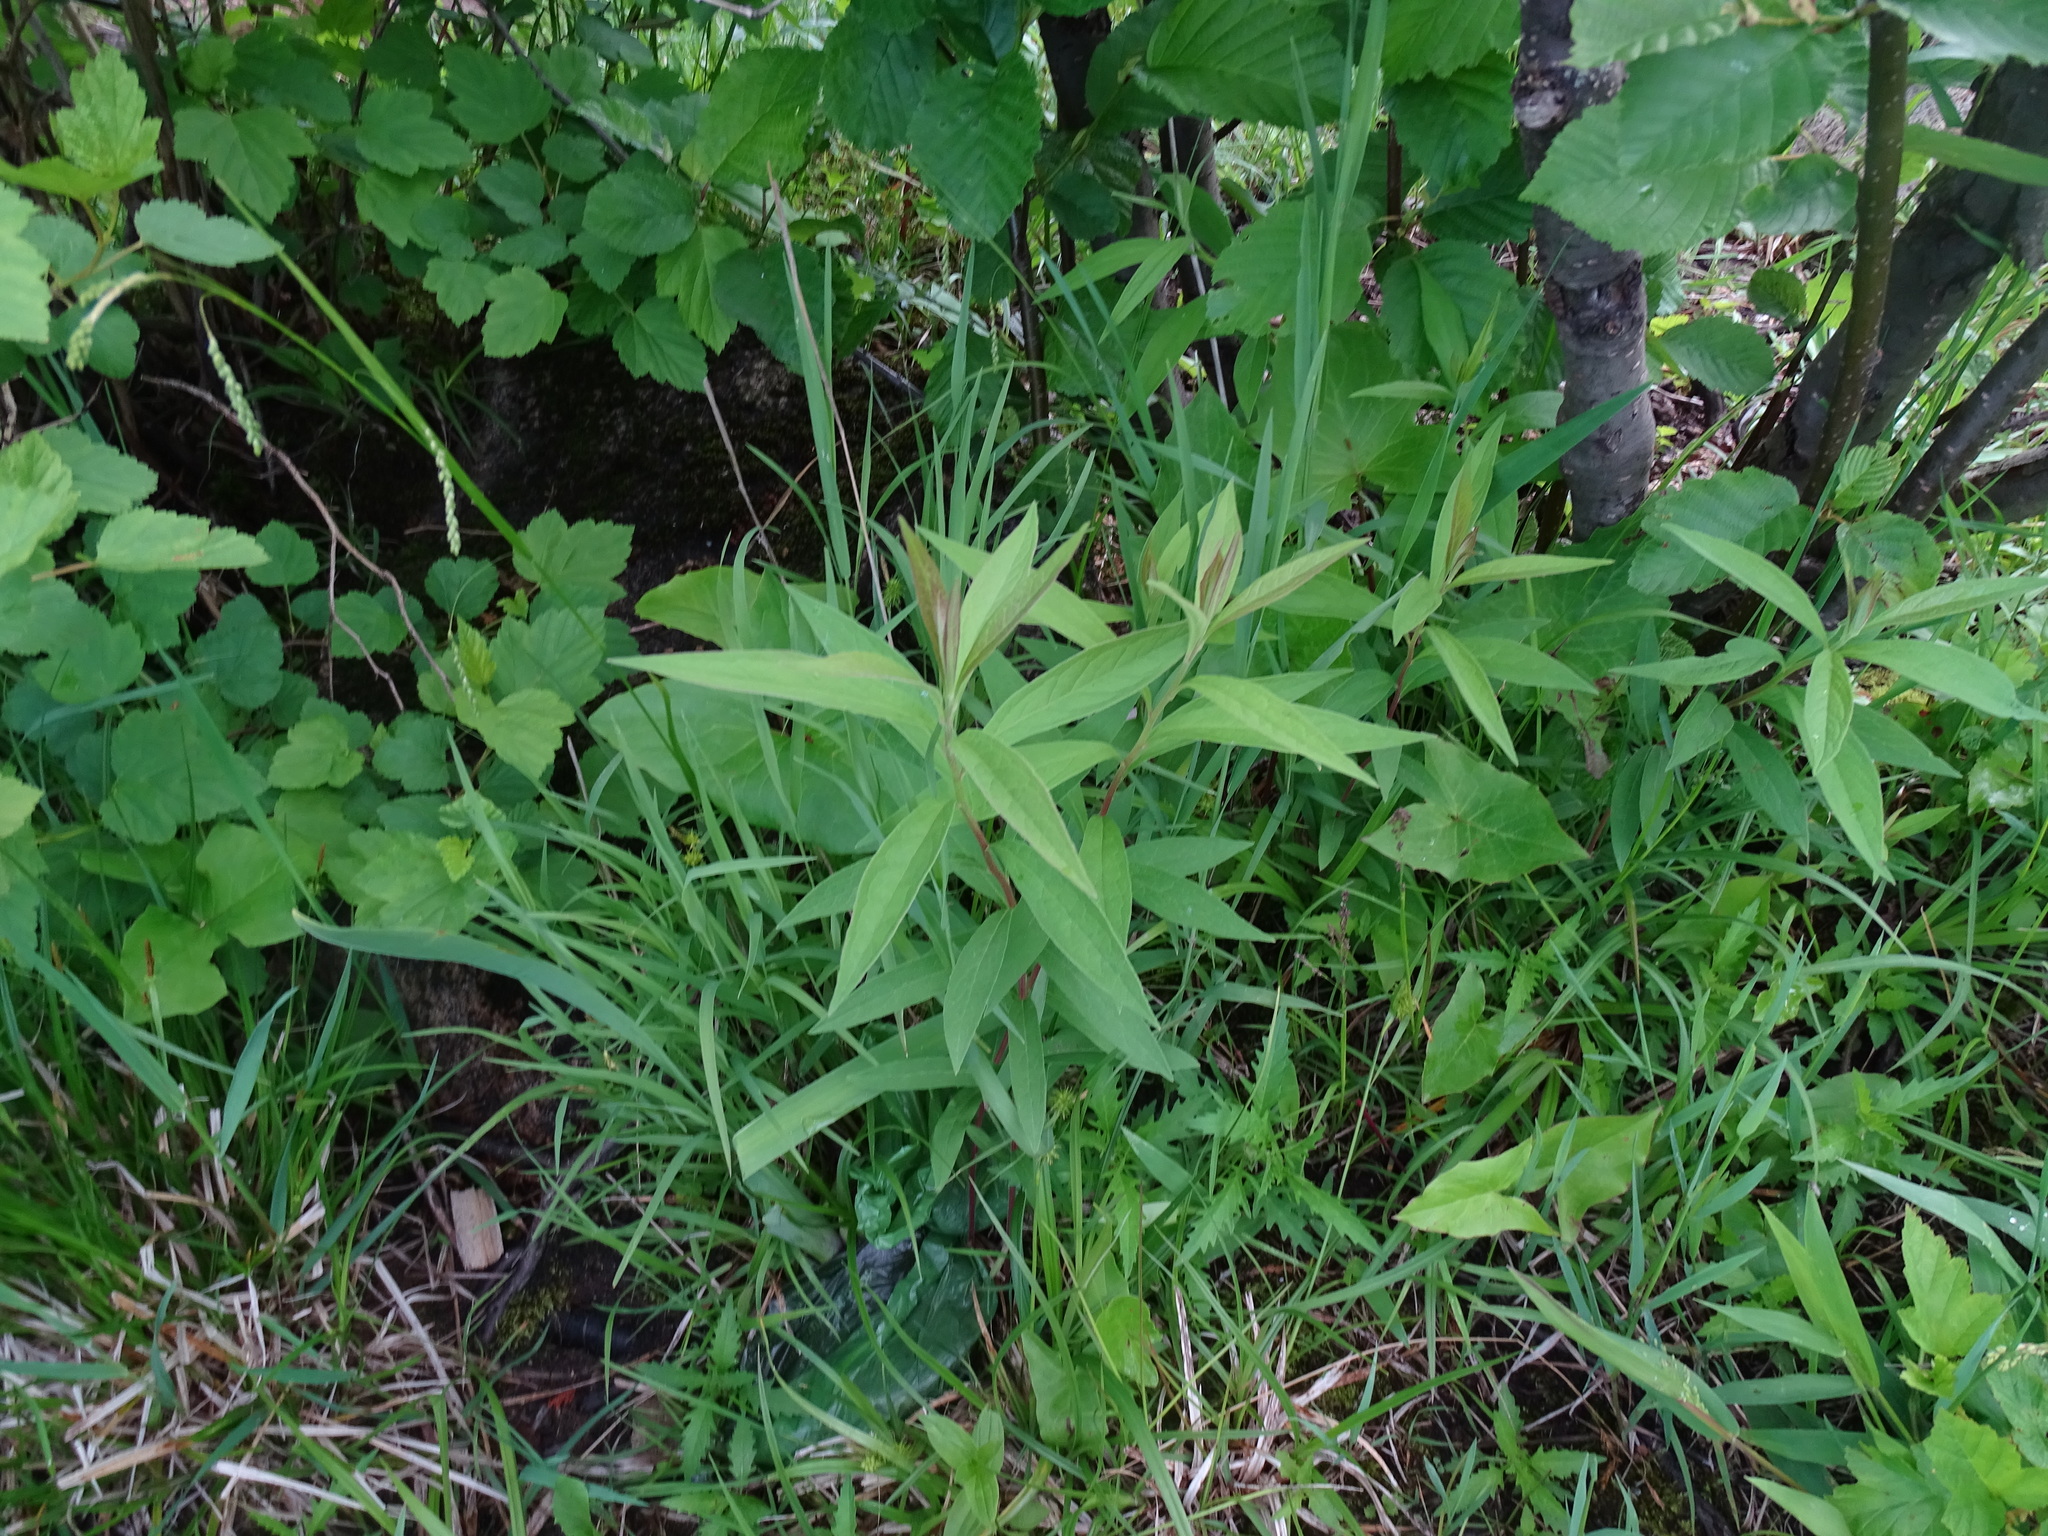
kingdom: Plantae
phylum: Tracheophyta
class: Magnoliopsida
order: Asterales
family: Asteraceae
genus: Doellingeria
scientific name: Doellingeria umbellata
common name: Flat-top white aster
